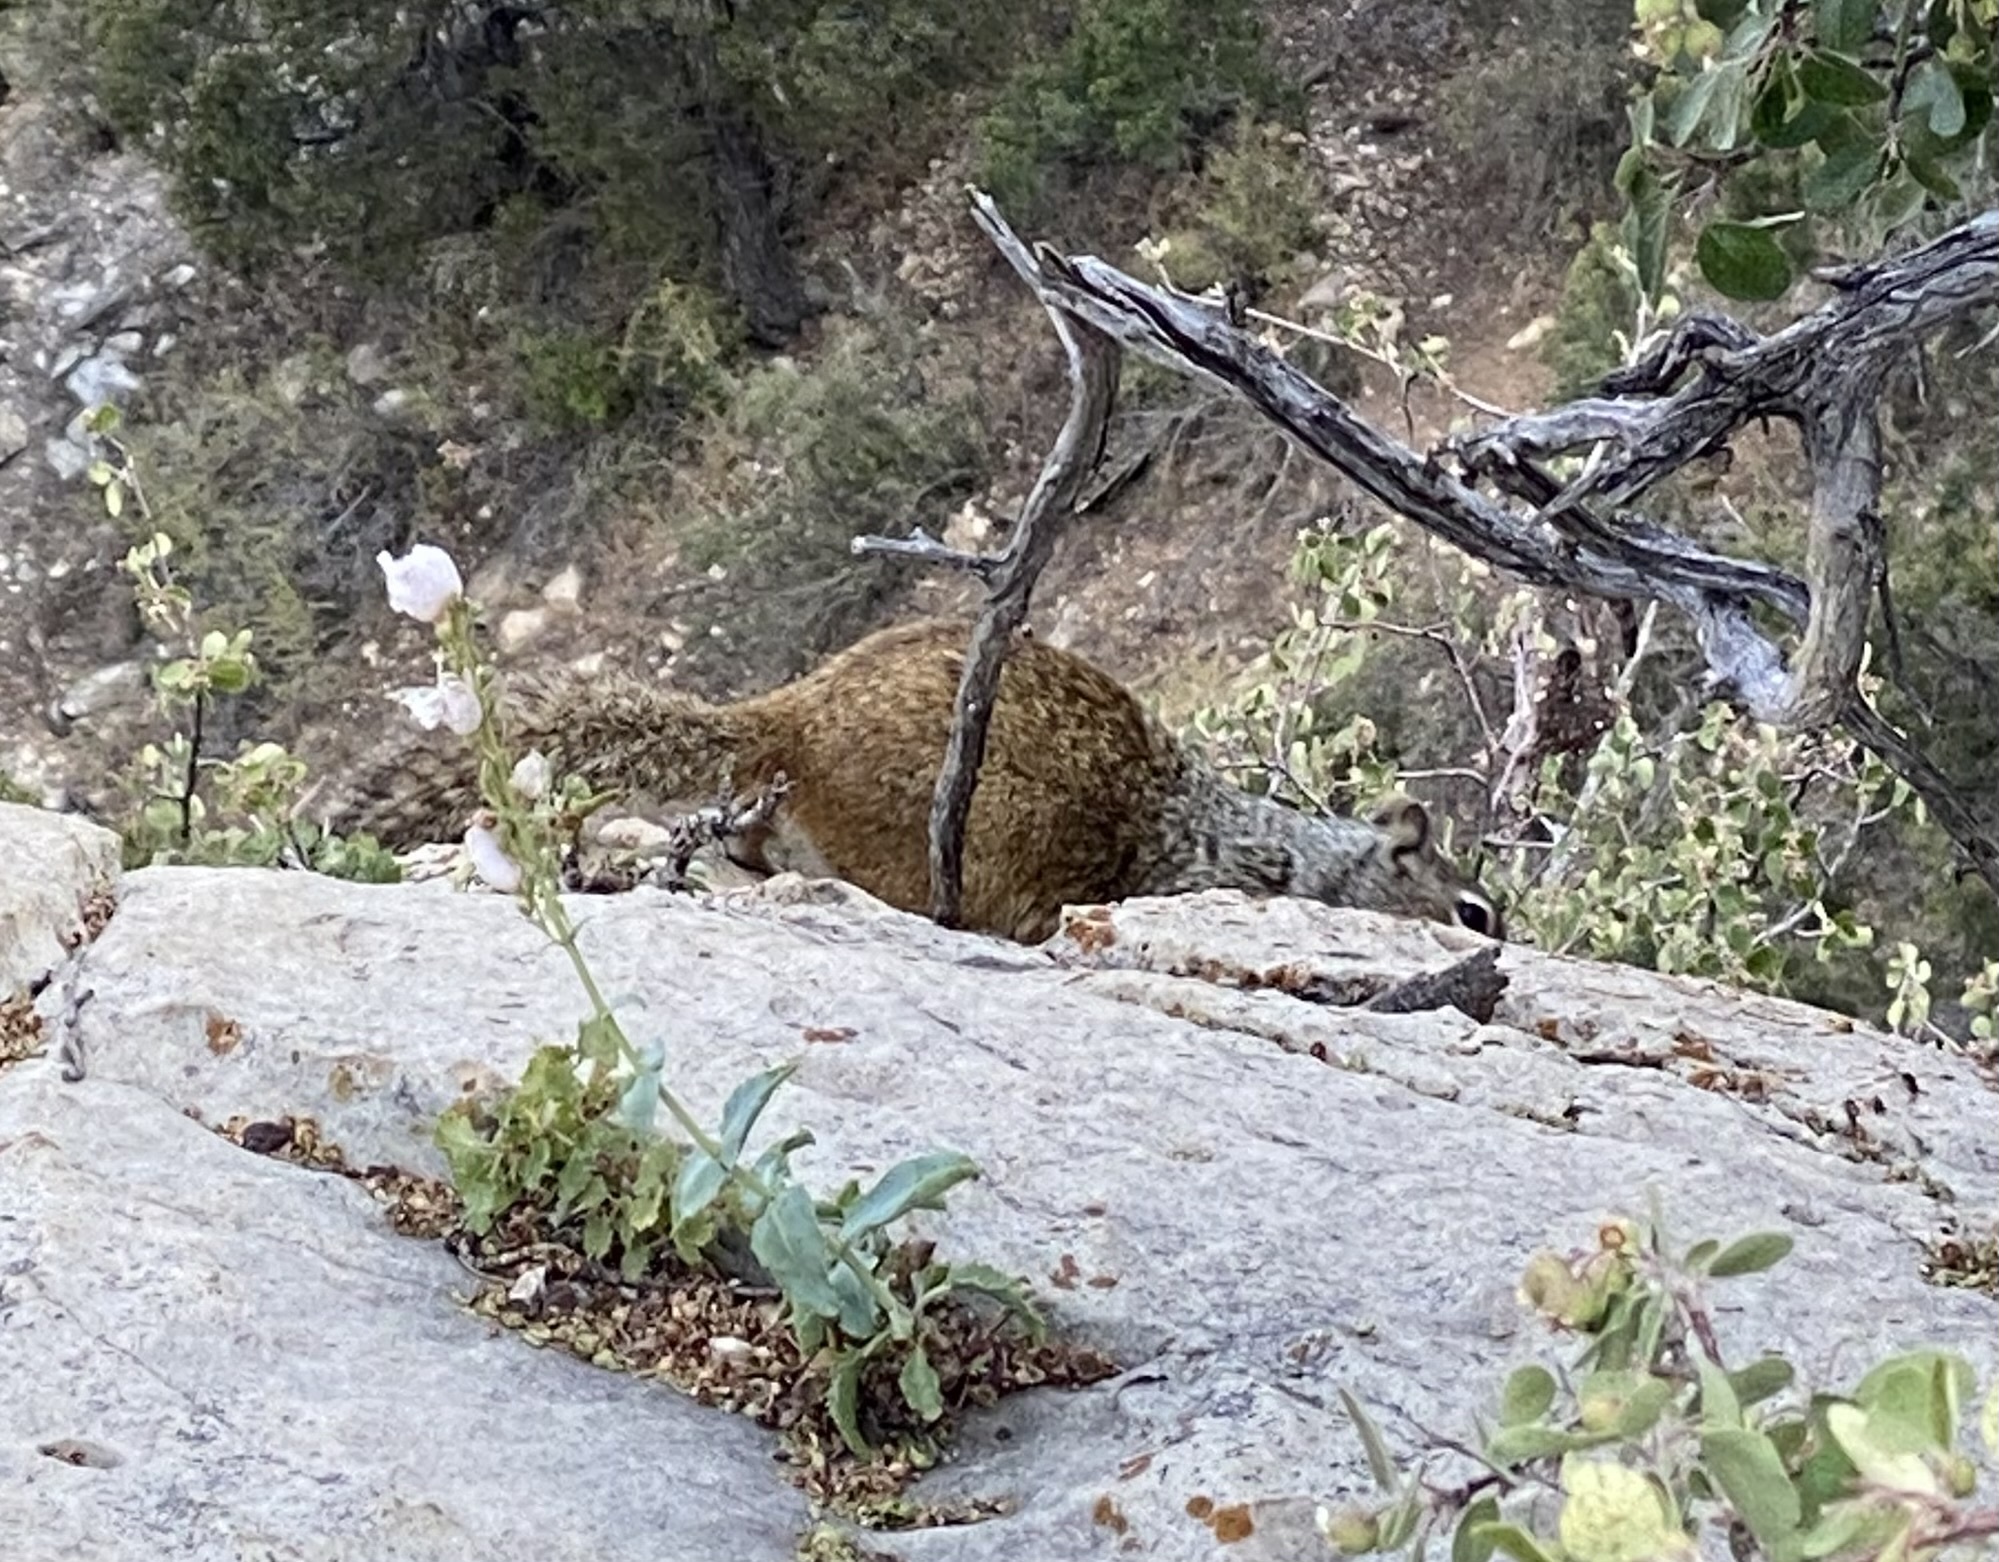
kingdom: Animalia
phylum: Chordata
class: Mammalia
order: Rodentia
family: Sciuridae
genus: Otospermophilus
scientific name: Otospermophilus variegatus
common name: Rock squirrel
